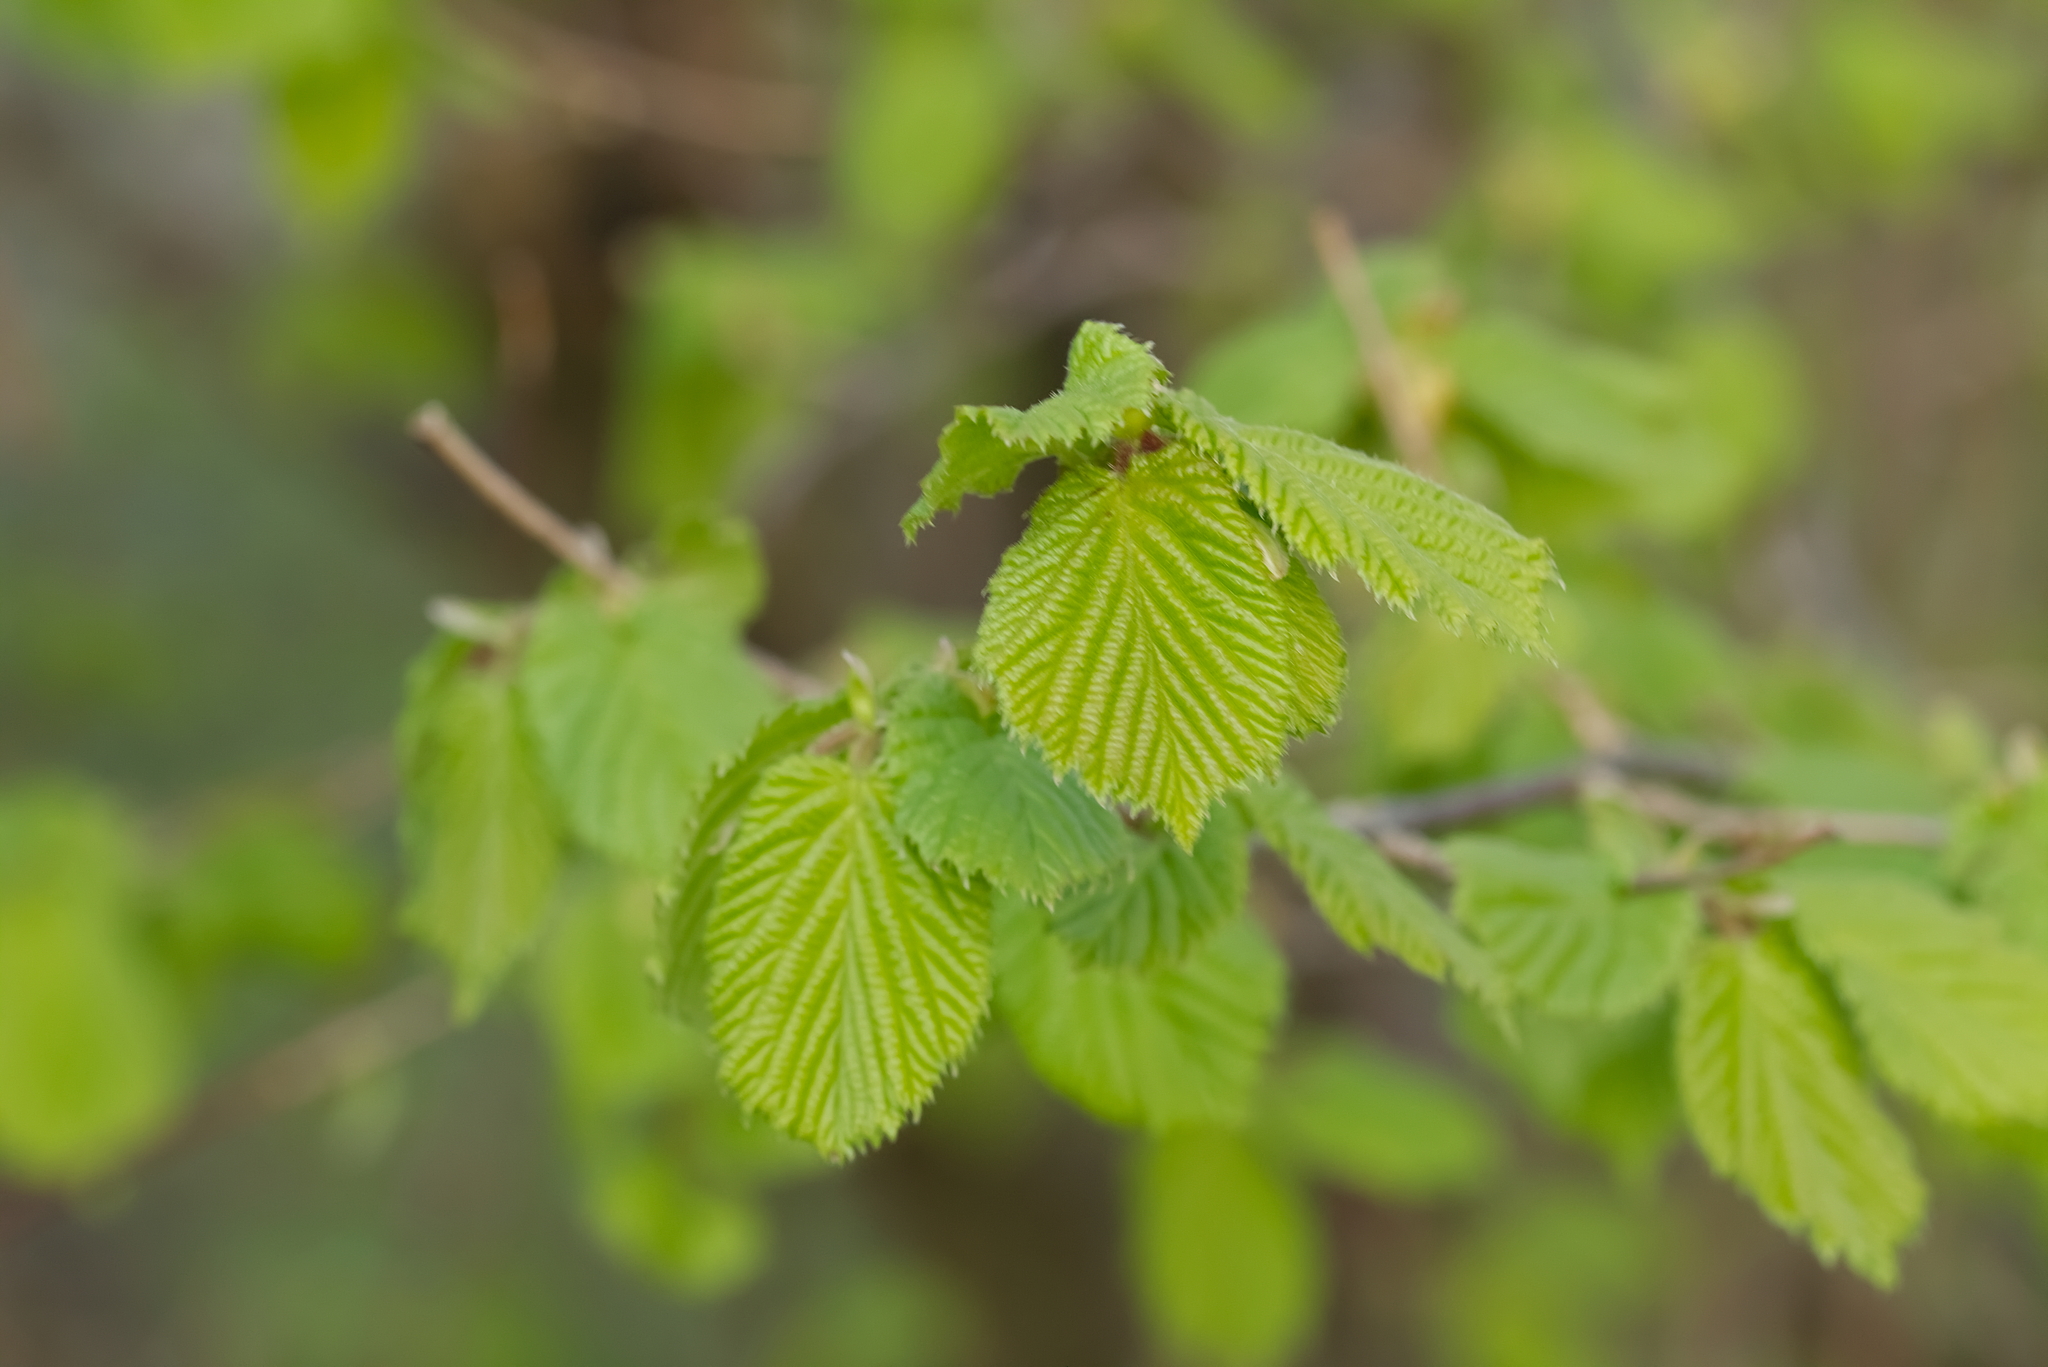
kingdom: Plantae
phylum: Tracheophyta
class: Magnoliopsida
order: Fagales
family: Betulaceae
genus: Corylus
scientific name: Corylus avellana
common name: European hazel
